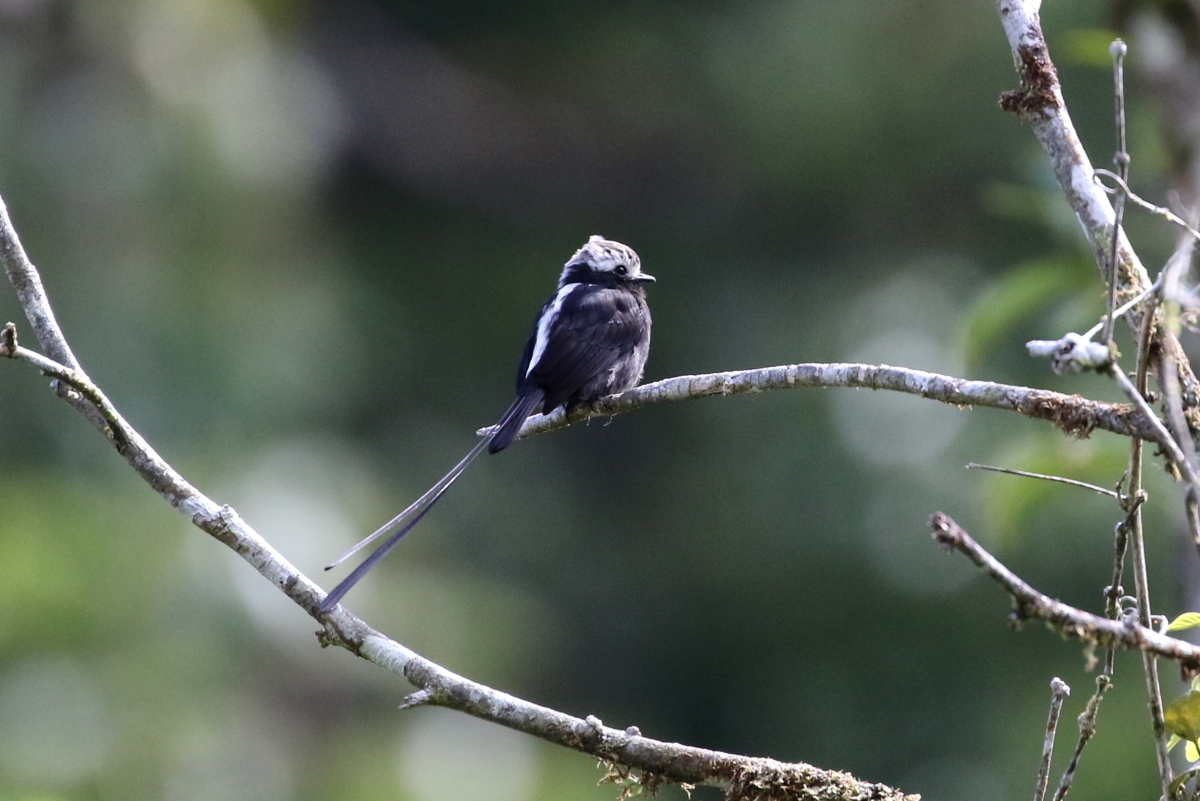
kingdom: Animalia
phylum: Chordata
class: Aves
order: Passeriformes
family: Tyrannidae
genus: Colonia
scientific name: Colonia colonus
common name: Long-tailed tyrant
